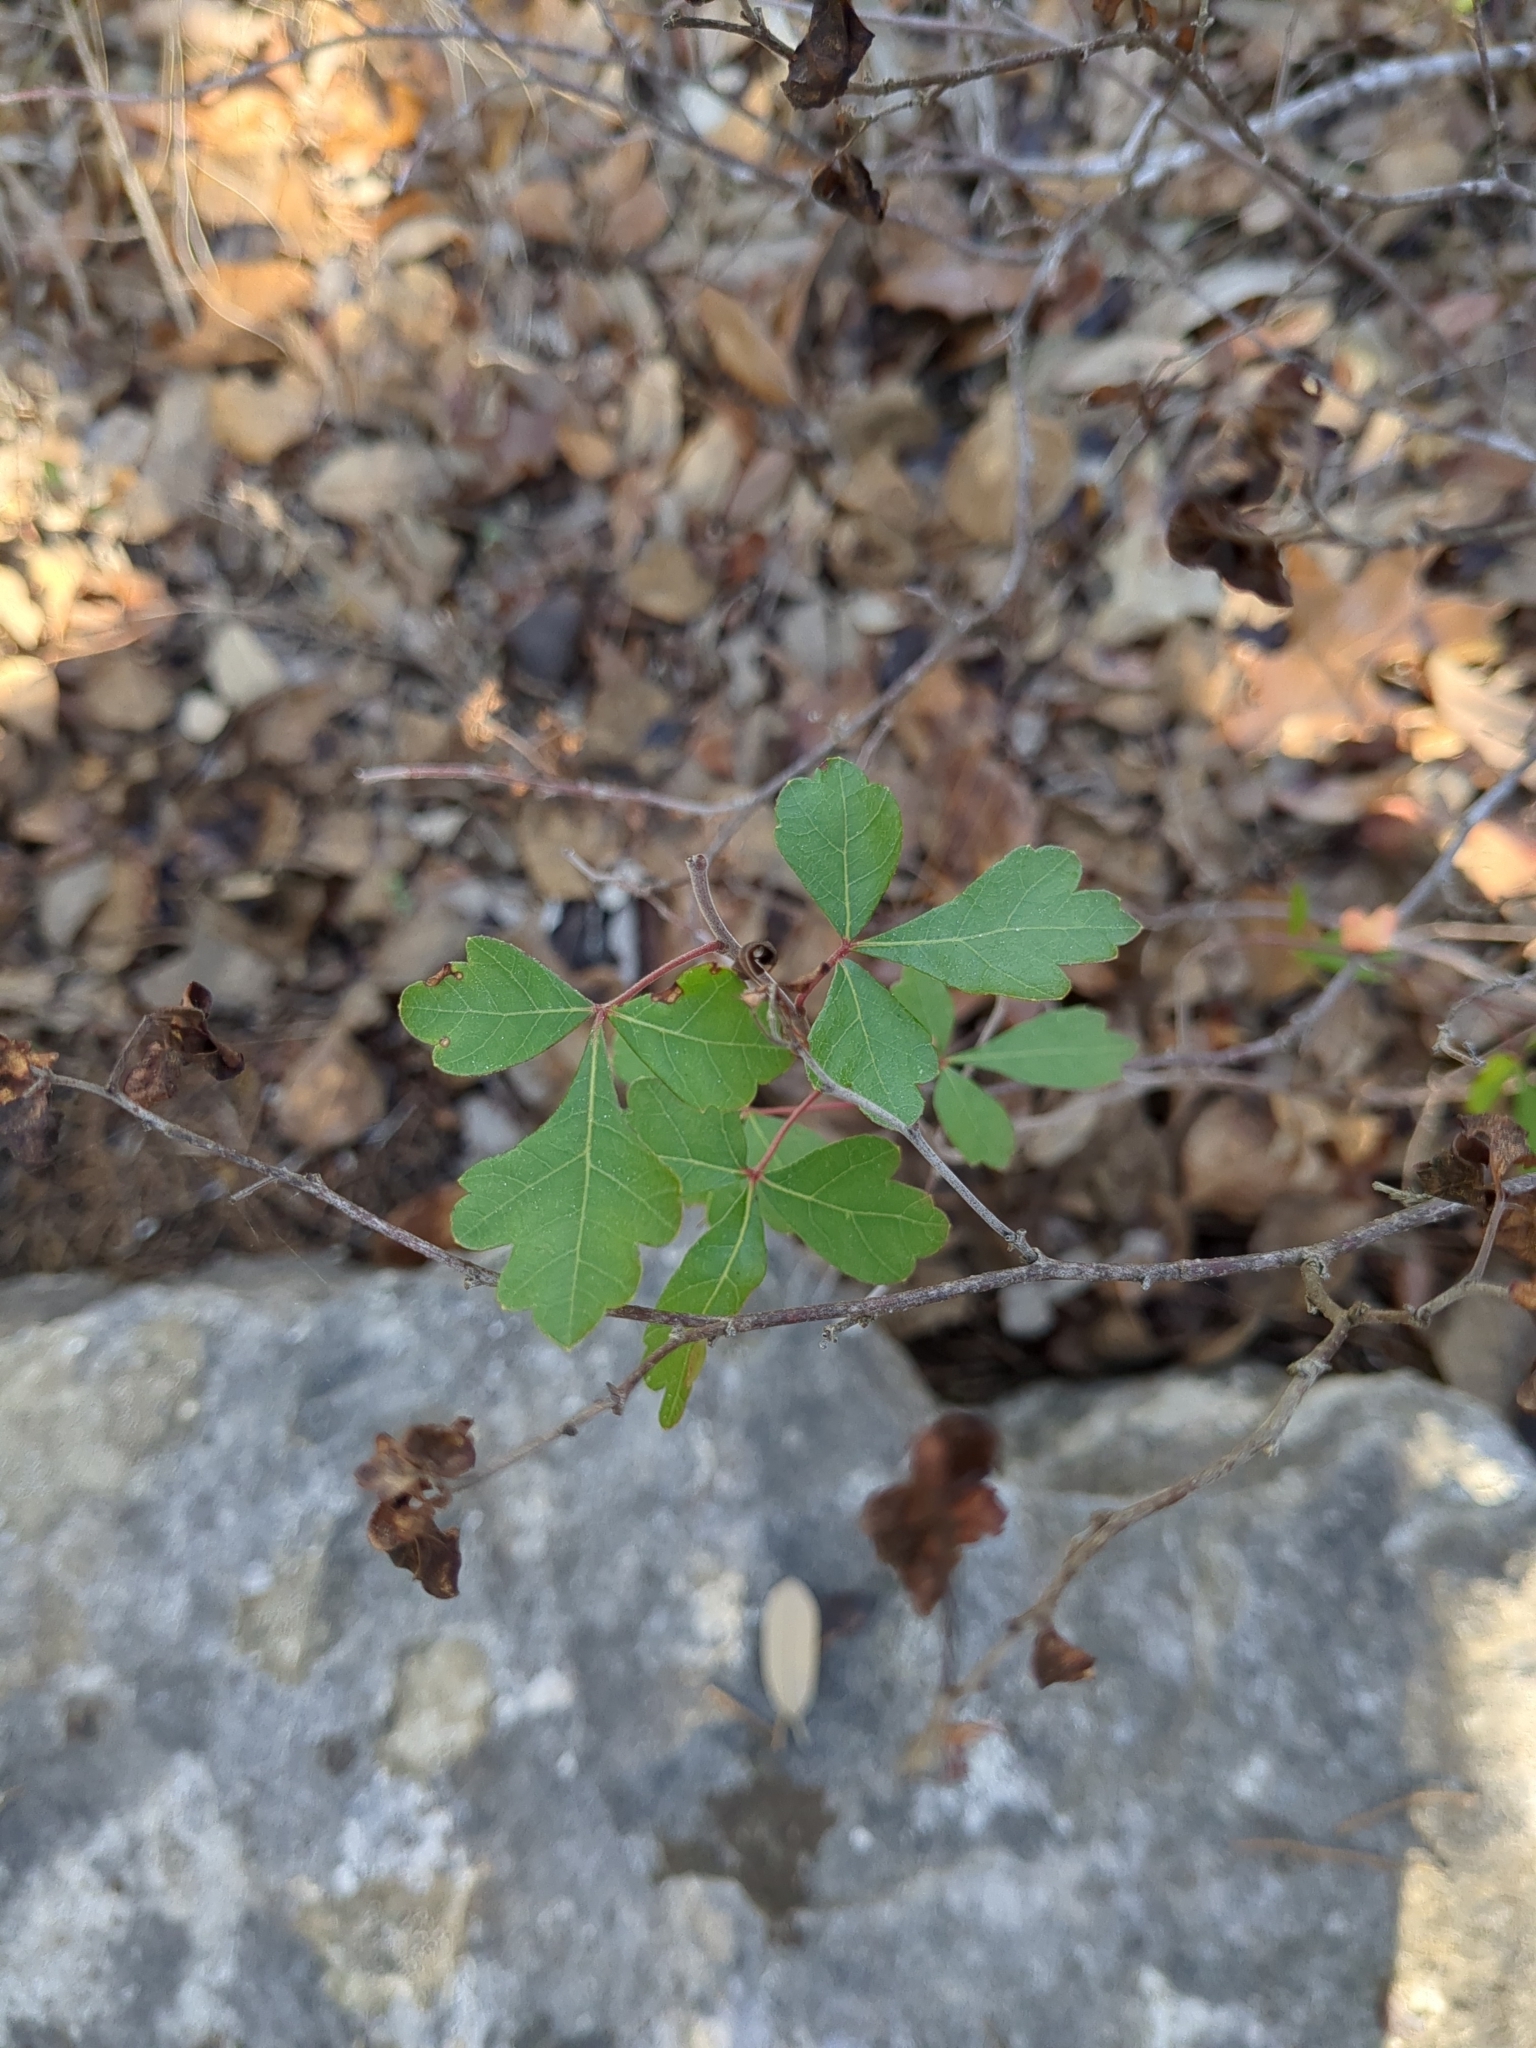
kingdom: Plantae
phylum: Tracheophyta
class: Magnoliopsida
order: Sapindales
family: Anacardiaceae
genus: Rhus
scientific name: Rhus aromatica
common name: Aromatic sumac
